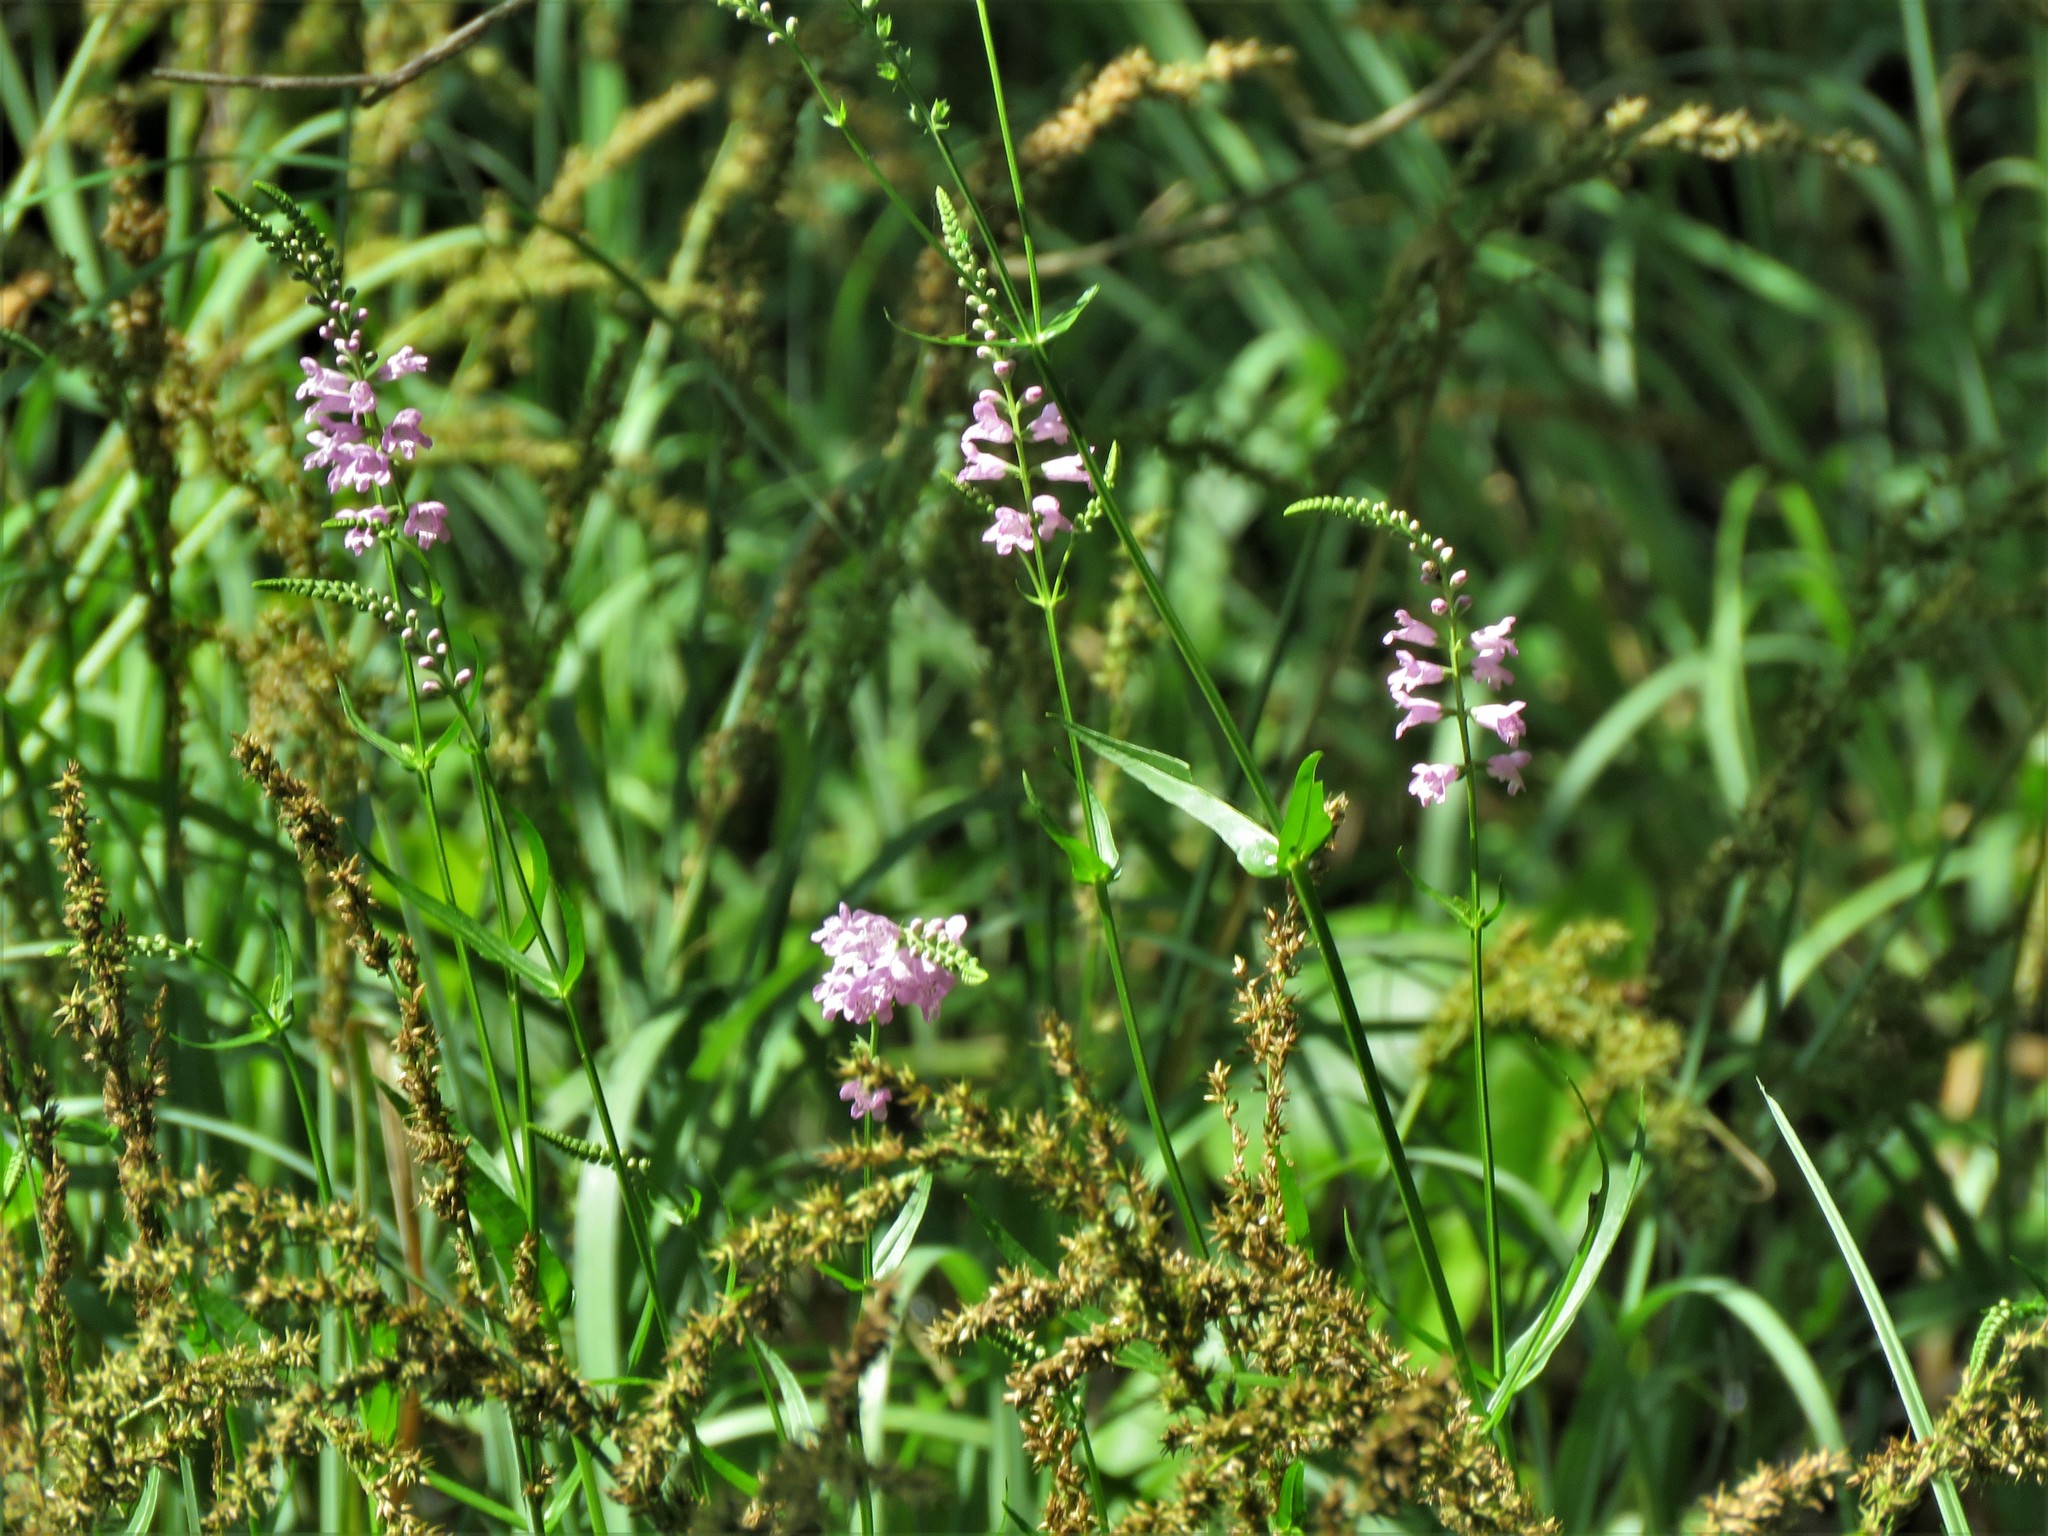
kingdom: Plantae
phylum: Tracheophyta
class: Magnoliopsida
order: Lamiales
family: Lamiaceae
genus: Physostegia
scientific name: Physostegia virginiana
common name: Obedient-plant
